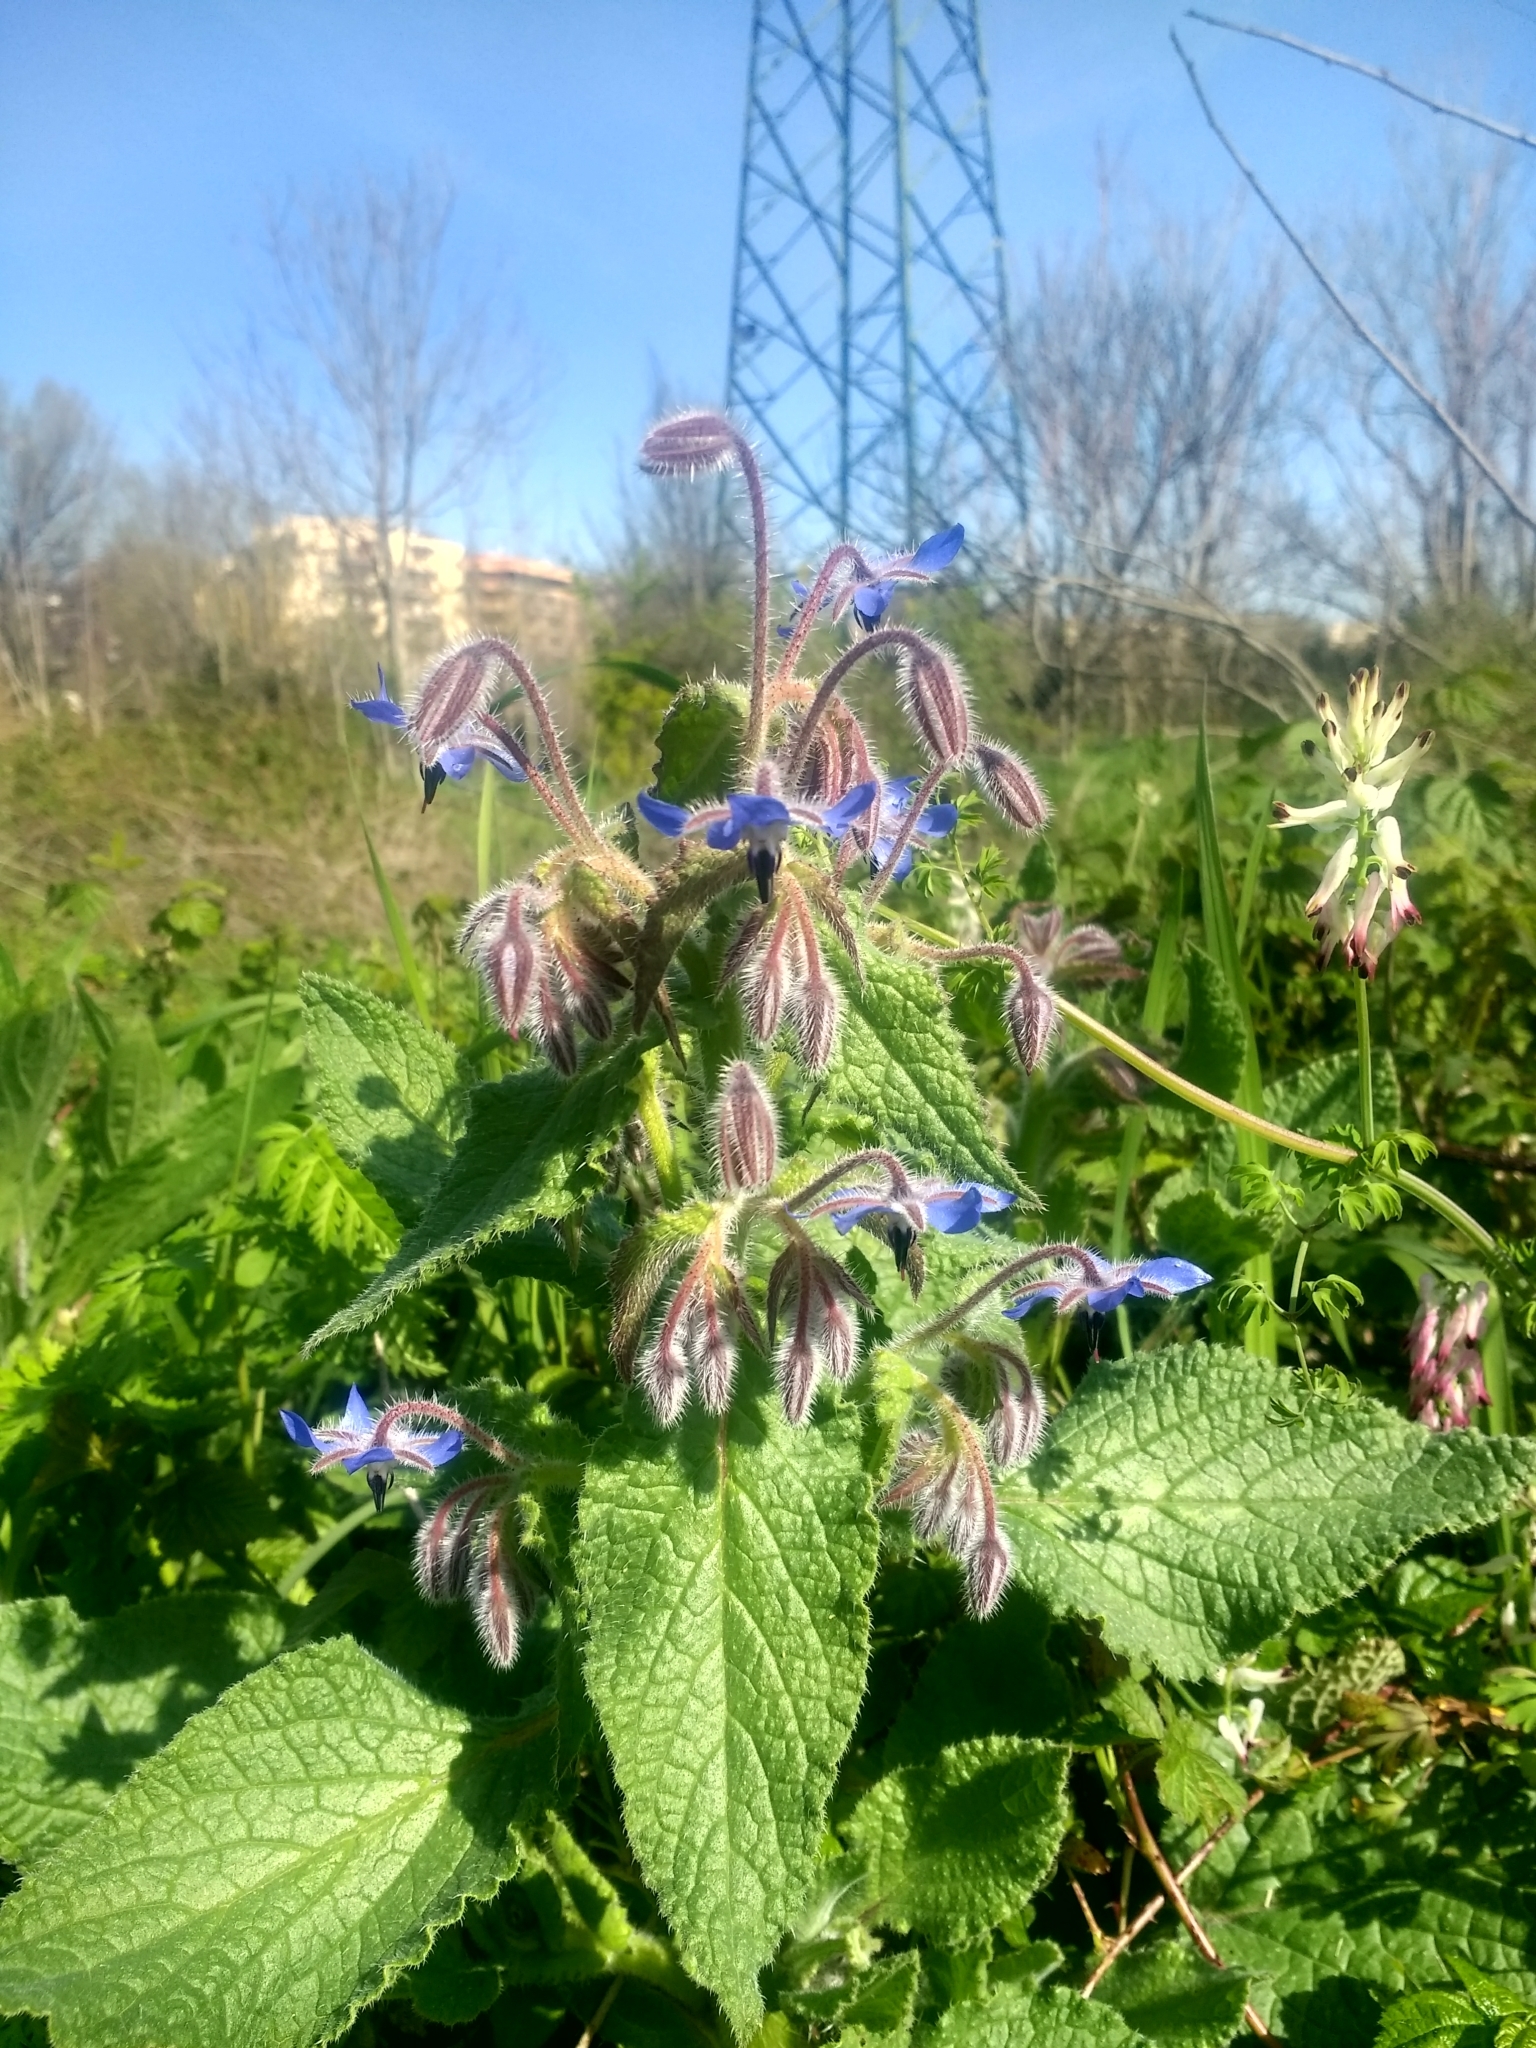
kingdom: Plantae
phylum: Tracheophyta
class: Magnoliopsida
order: Boraginales
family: Boraginaceae
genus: Borago
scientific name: Borago officinalis
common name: Borage
